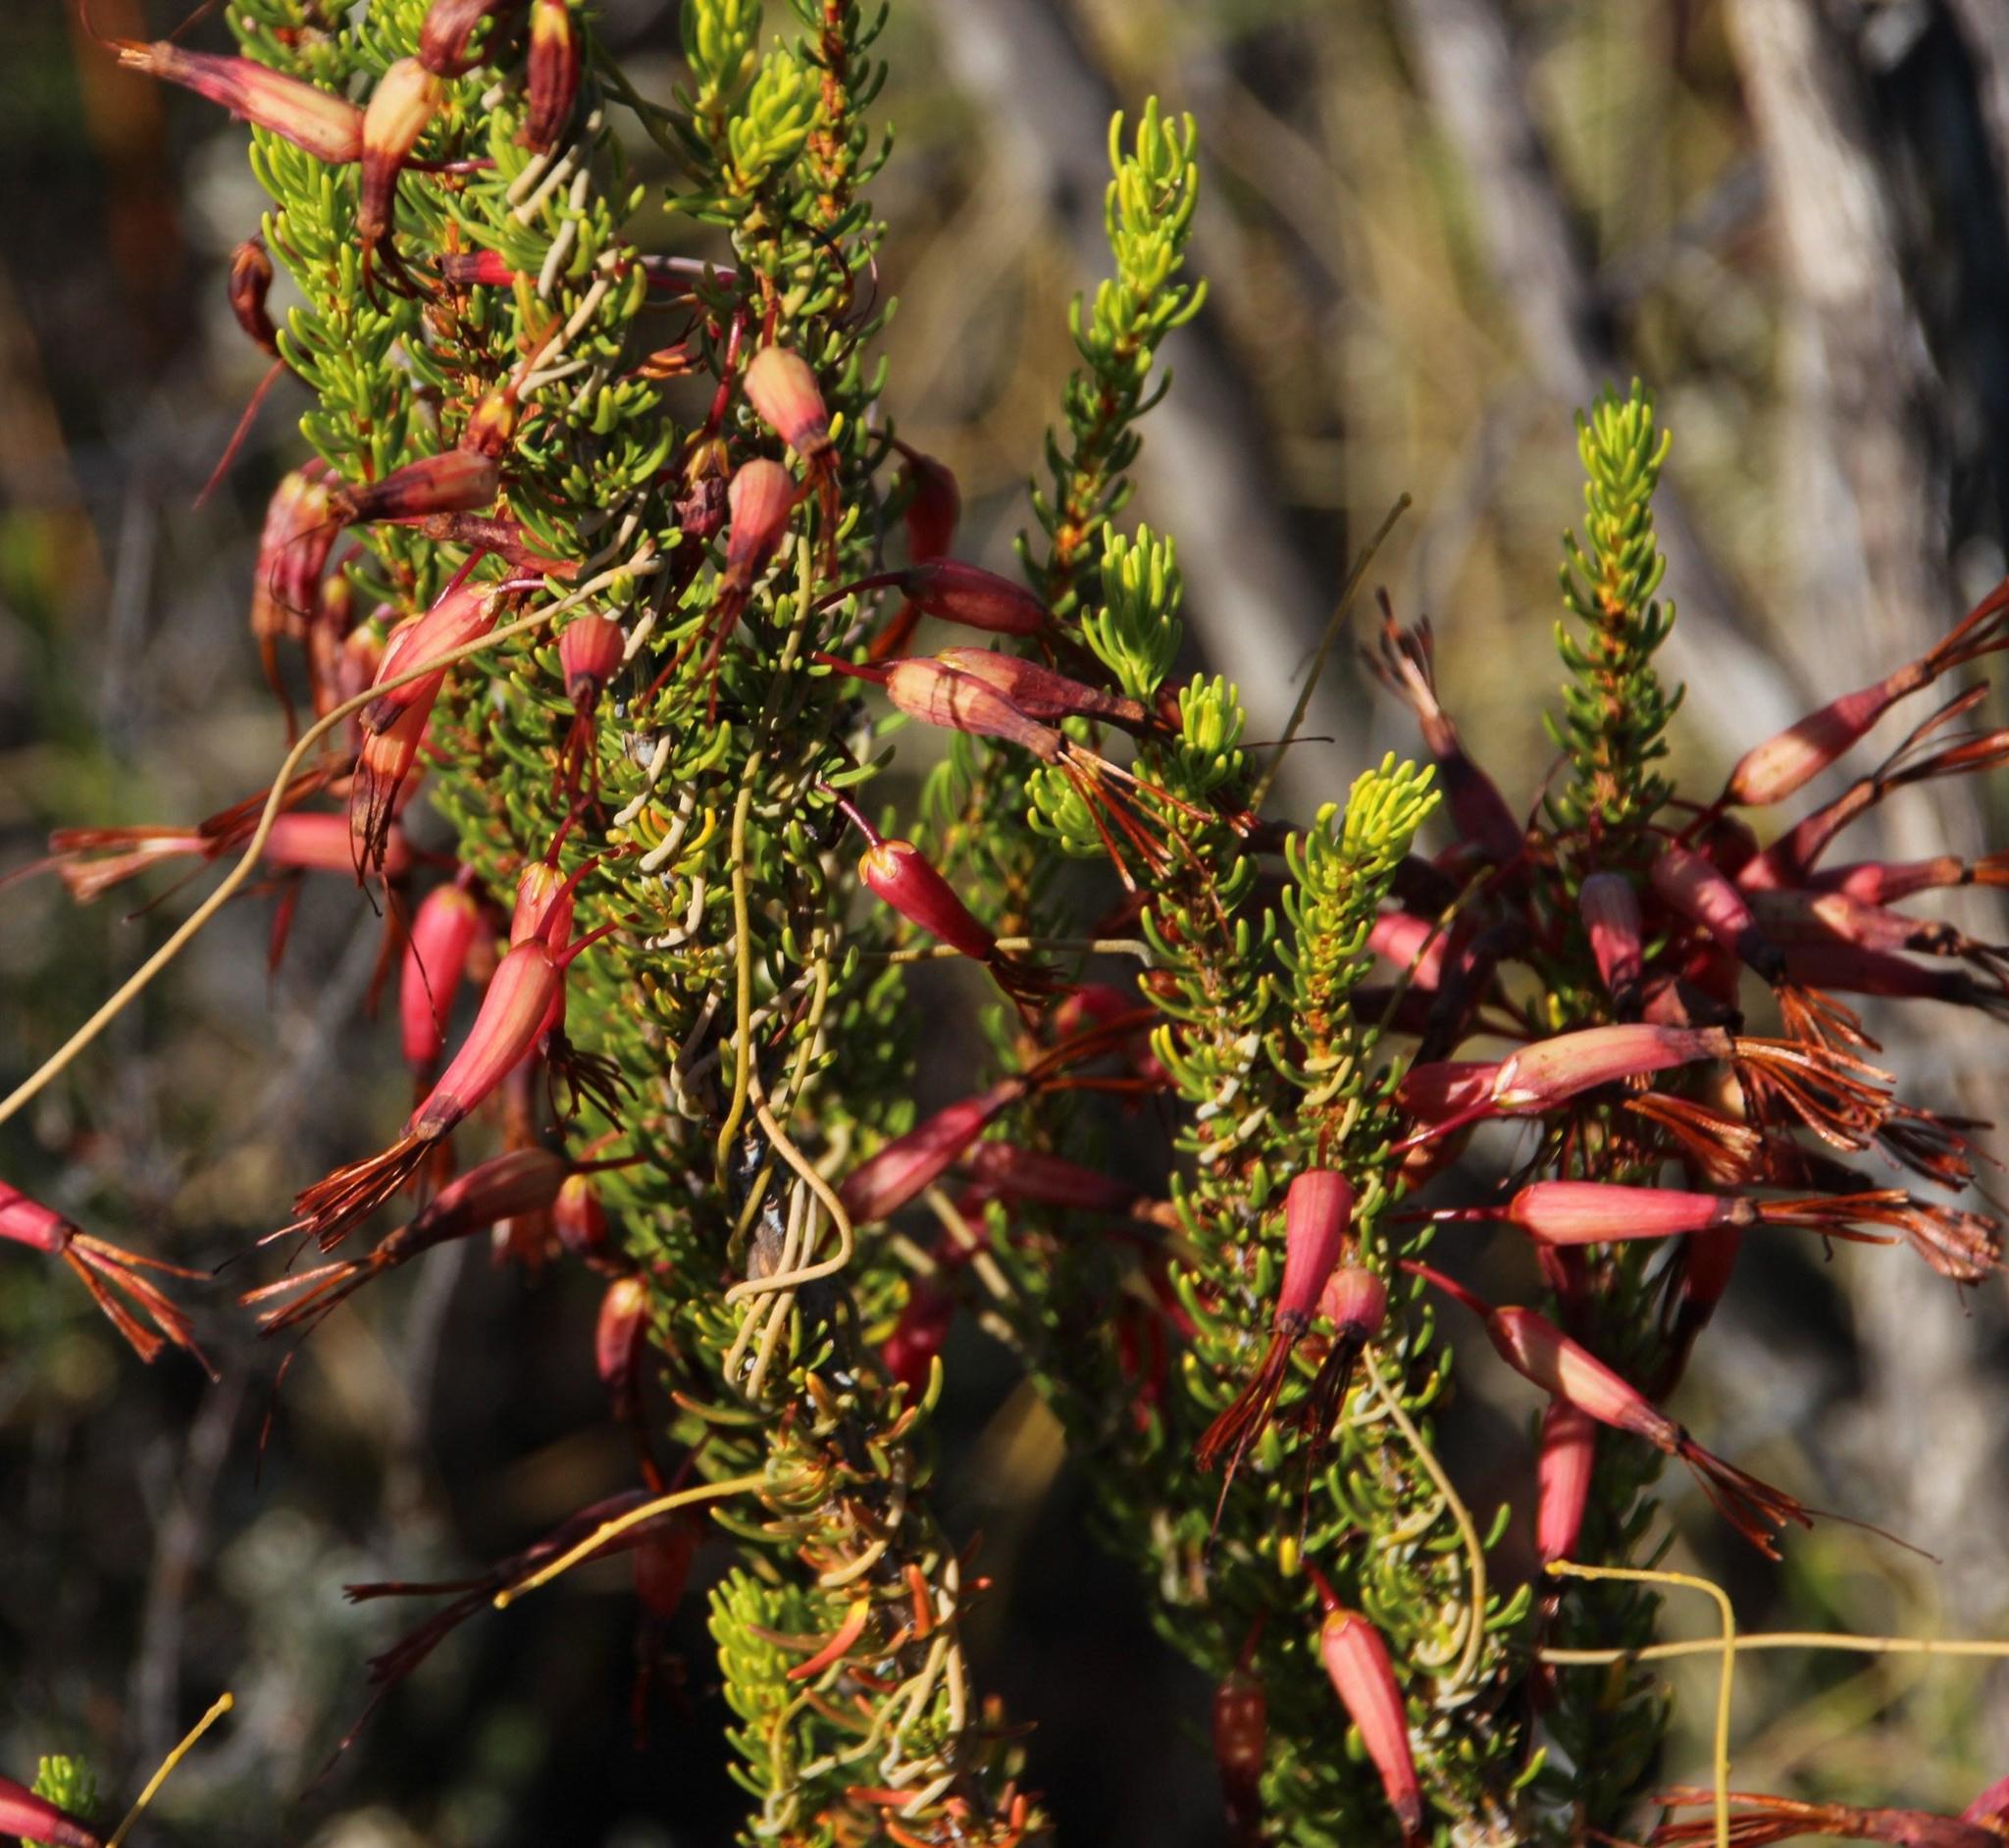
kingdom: Plantae
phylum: Tracheophyta
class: Magnoliopsida
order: Ericales
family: Ericaceae
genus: Erica
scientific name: Erica plukenetii
